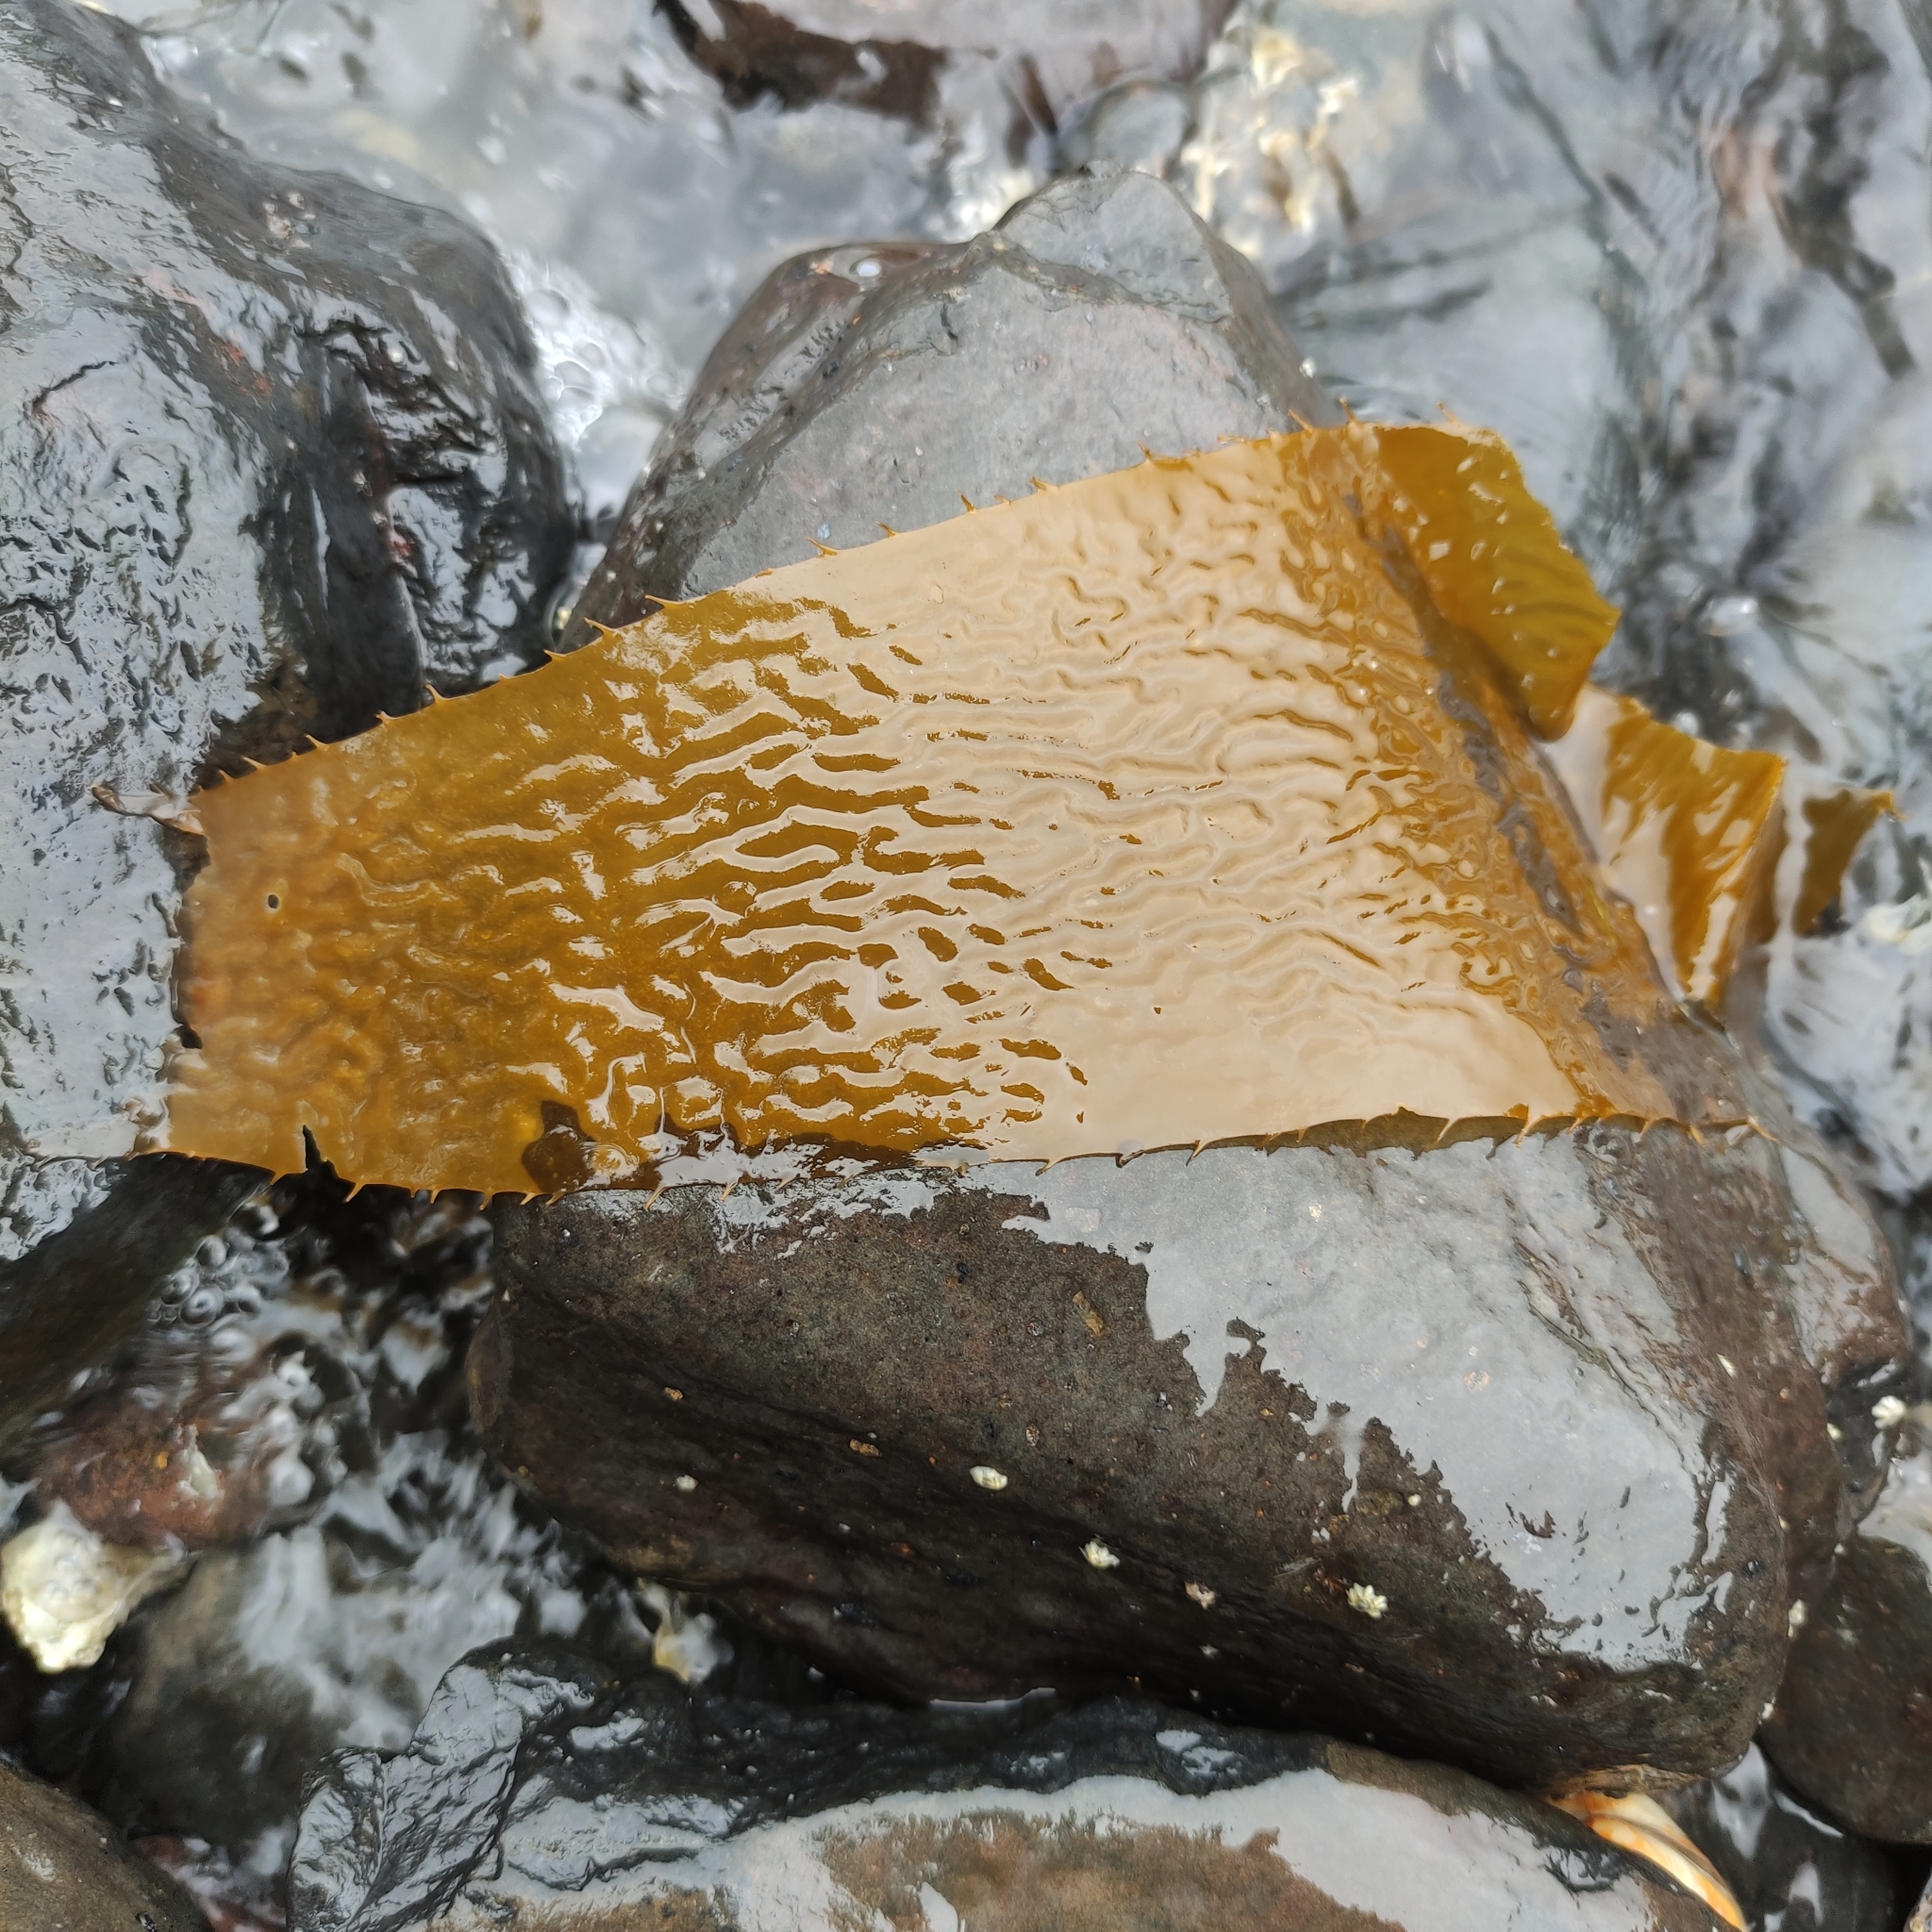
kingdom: Chromista
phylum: Ochrophyta
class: Phaeophyceae
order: Laminariales
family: Laminariaceae
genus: Macrocystis
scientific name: Macrocystis pyrifera
